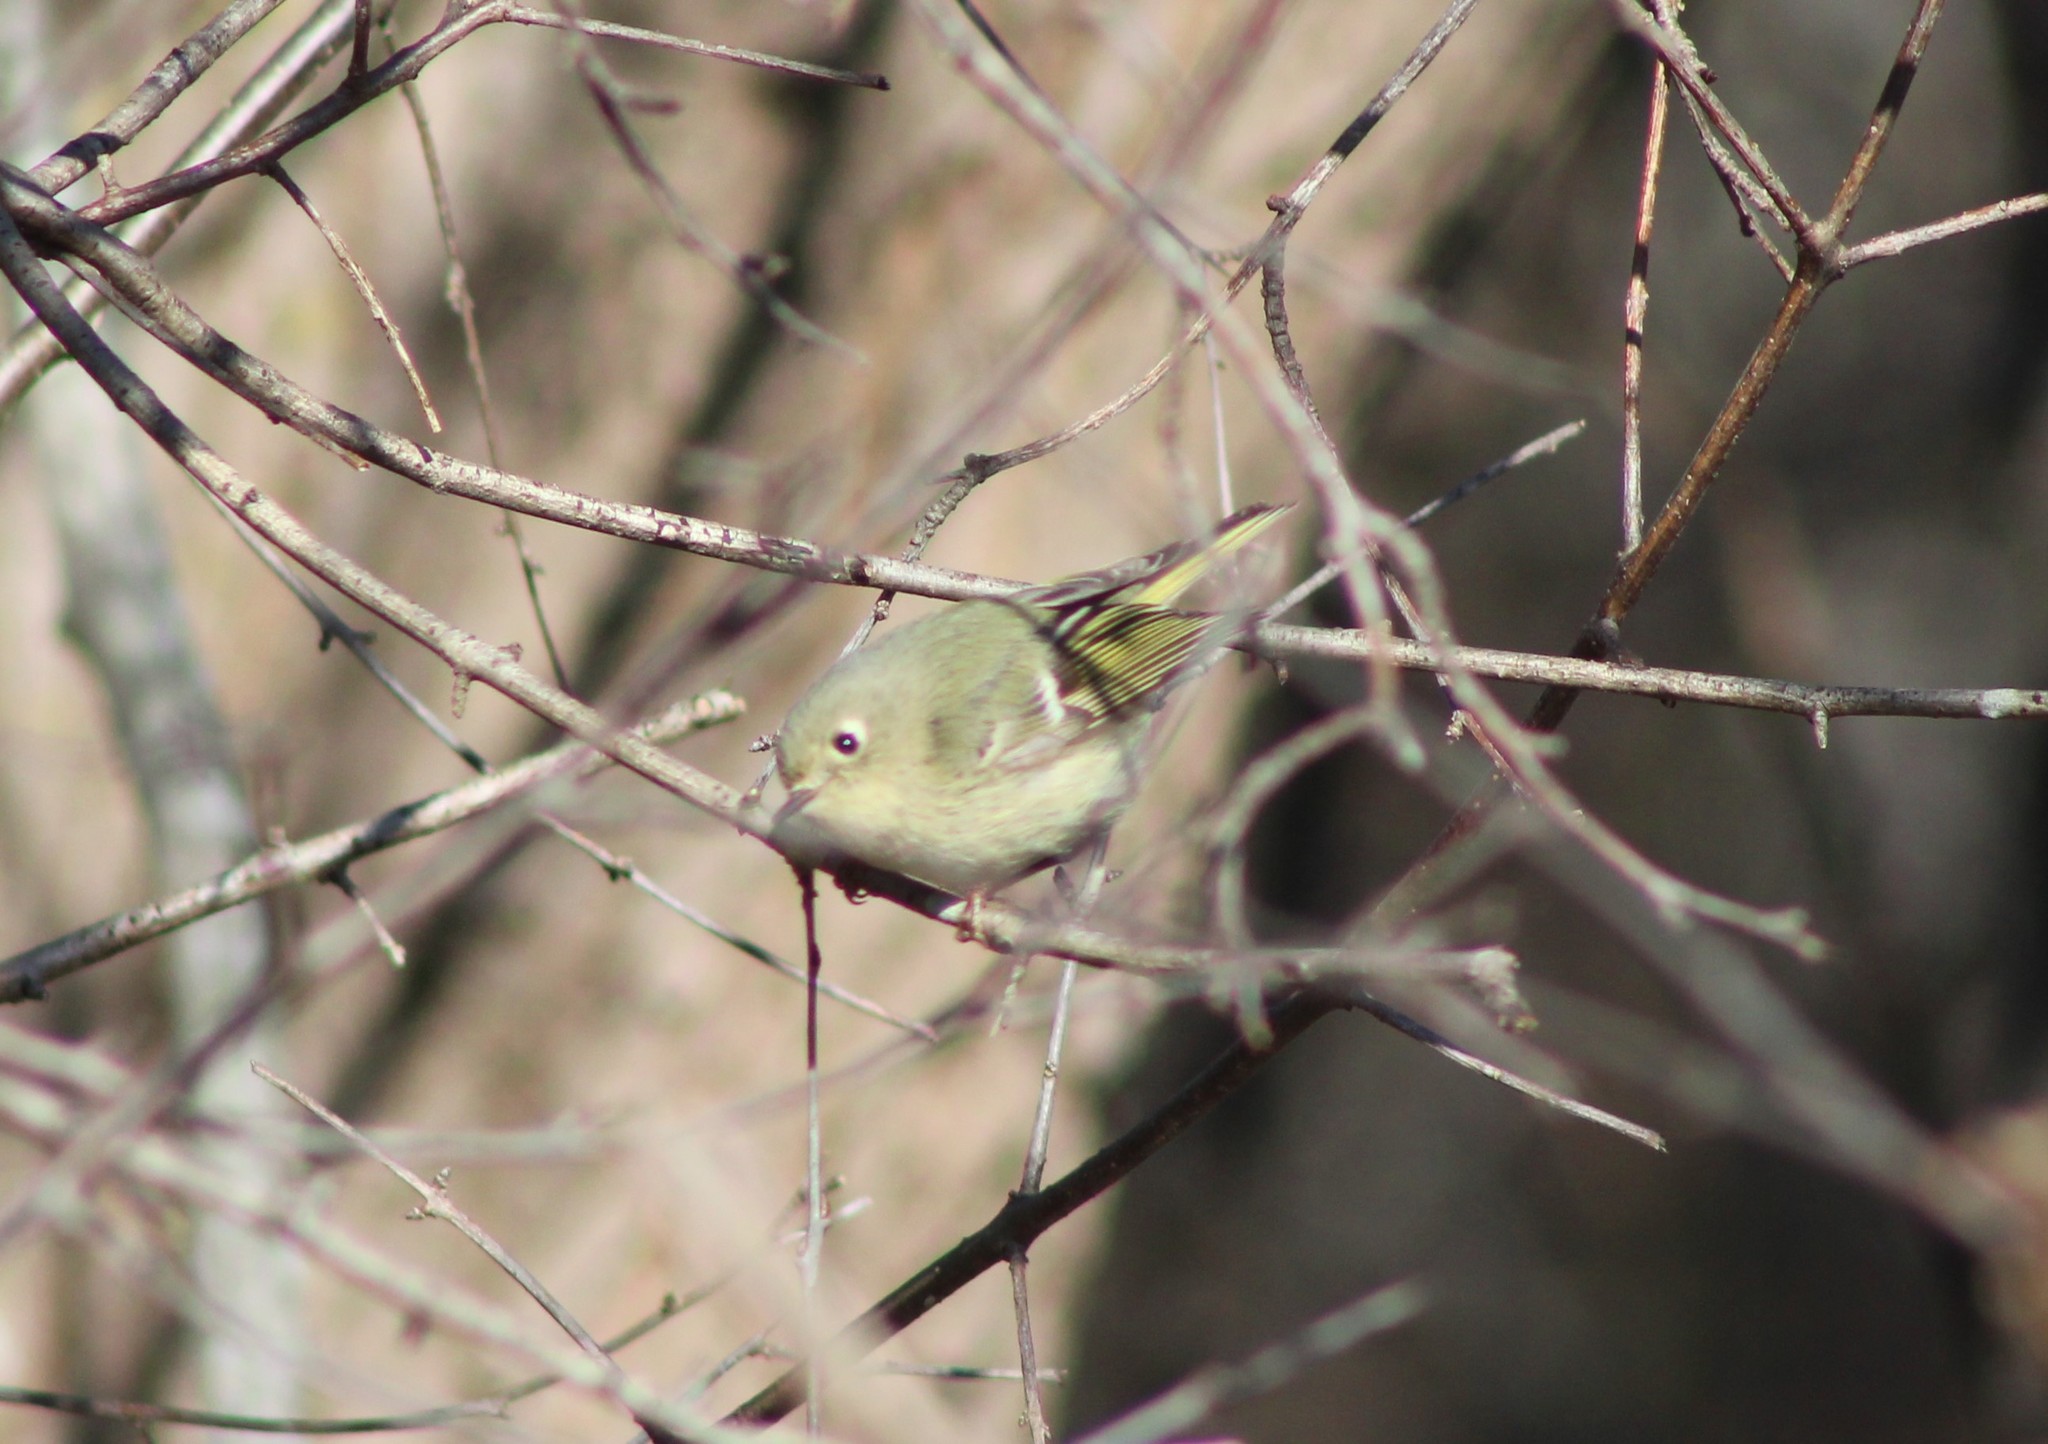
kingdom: Animalia
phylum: Chordata
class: Aves
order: Passeriformes
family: Regulidae
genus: Regulus
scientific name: Regulus calendula
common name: Ruby-crowned kinglet
